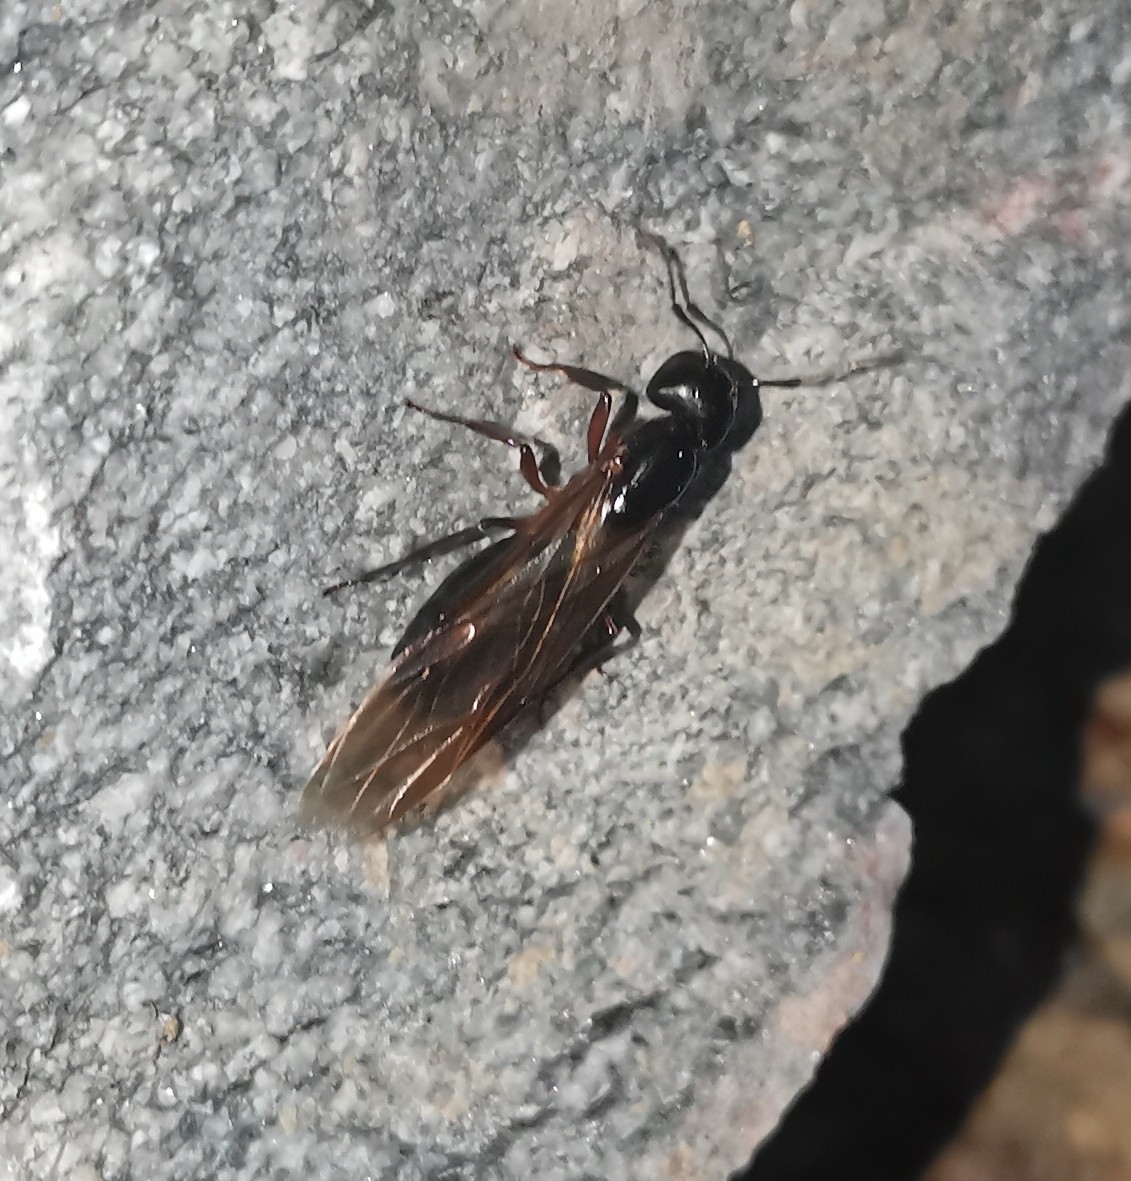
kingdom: Animalia
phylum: Arthropoda
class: Insecta
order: Hymenoptera
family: Formicidae
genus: Camponotus
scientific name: Camponotus herculeanus
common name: Hercules ant
